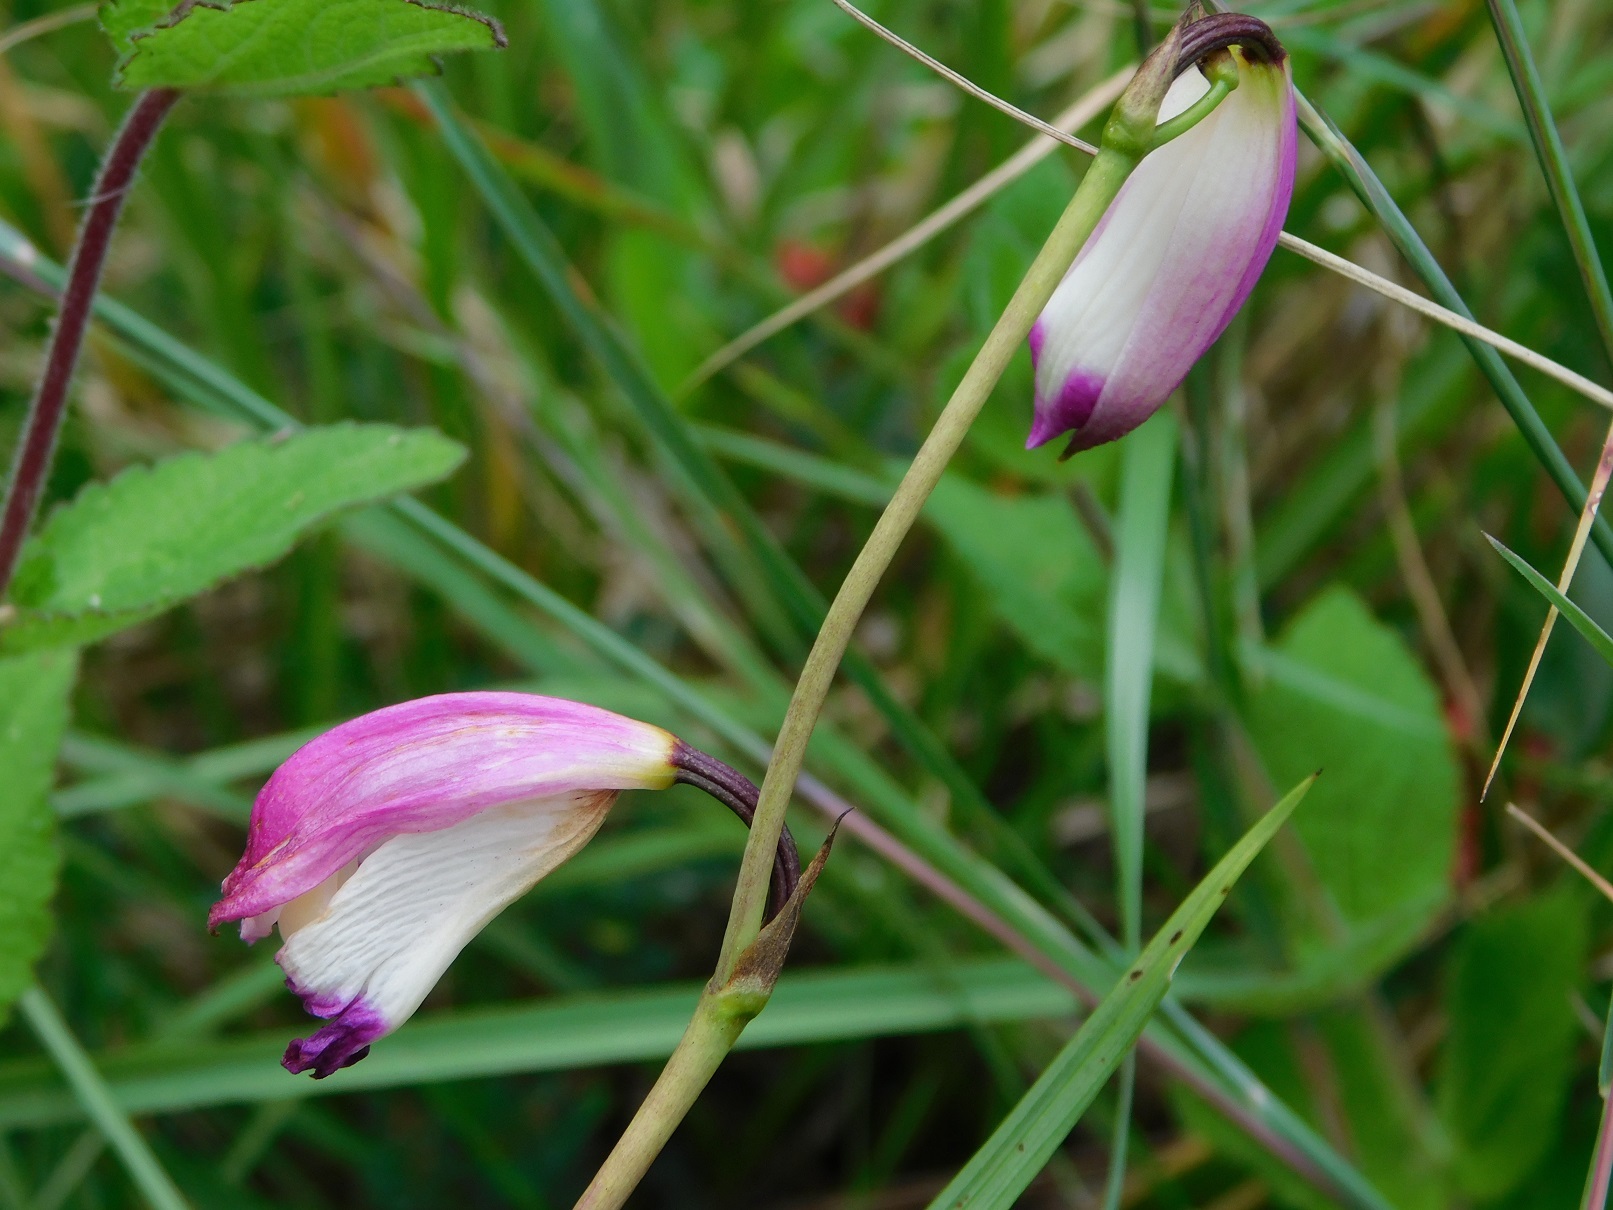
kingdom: Plantae
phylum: Tracheophyta
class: Liliopsida
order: Asparagales
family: Orchidaceae
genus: Bletia
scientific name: Bletia campanulata
